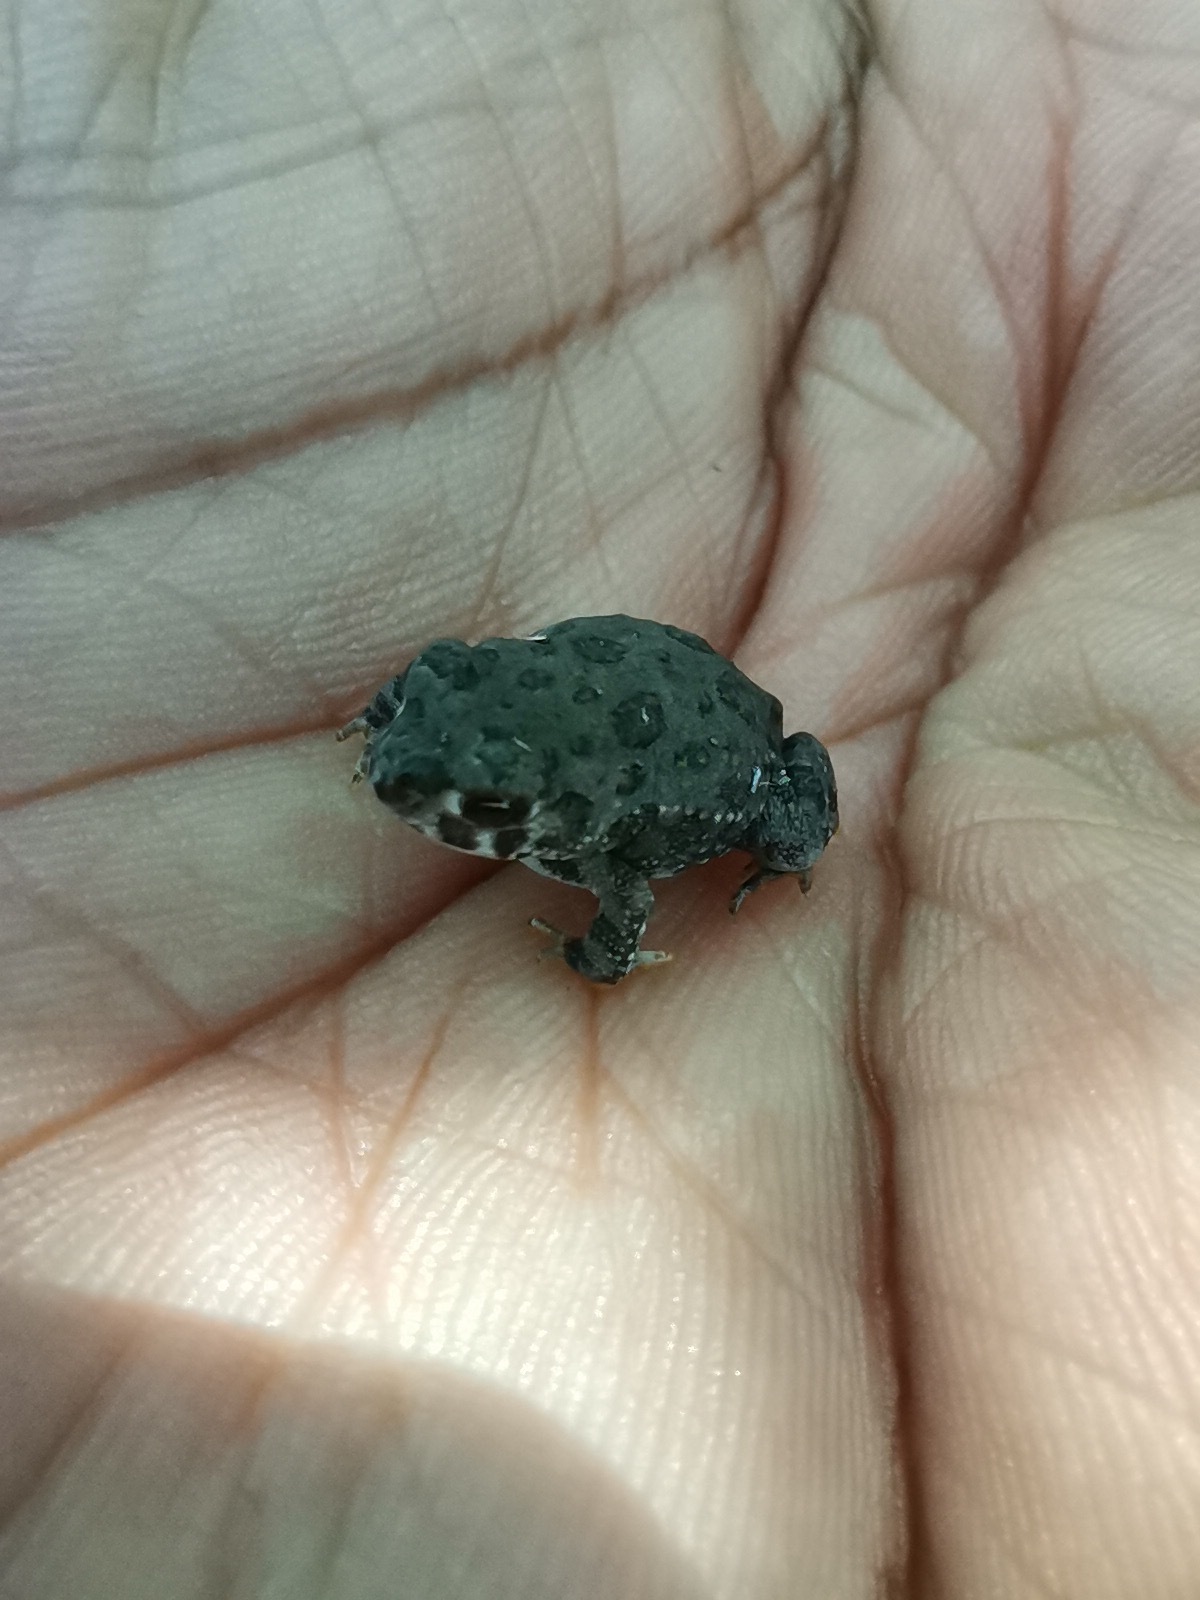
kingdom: Animalia
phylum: Chordata
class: Amphibia
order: Anura
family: Bufonidae
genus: Anaxyrus
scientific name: Anaxyrus compactilis
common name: Plateau toad
